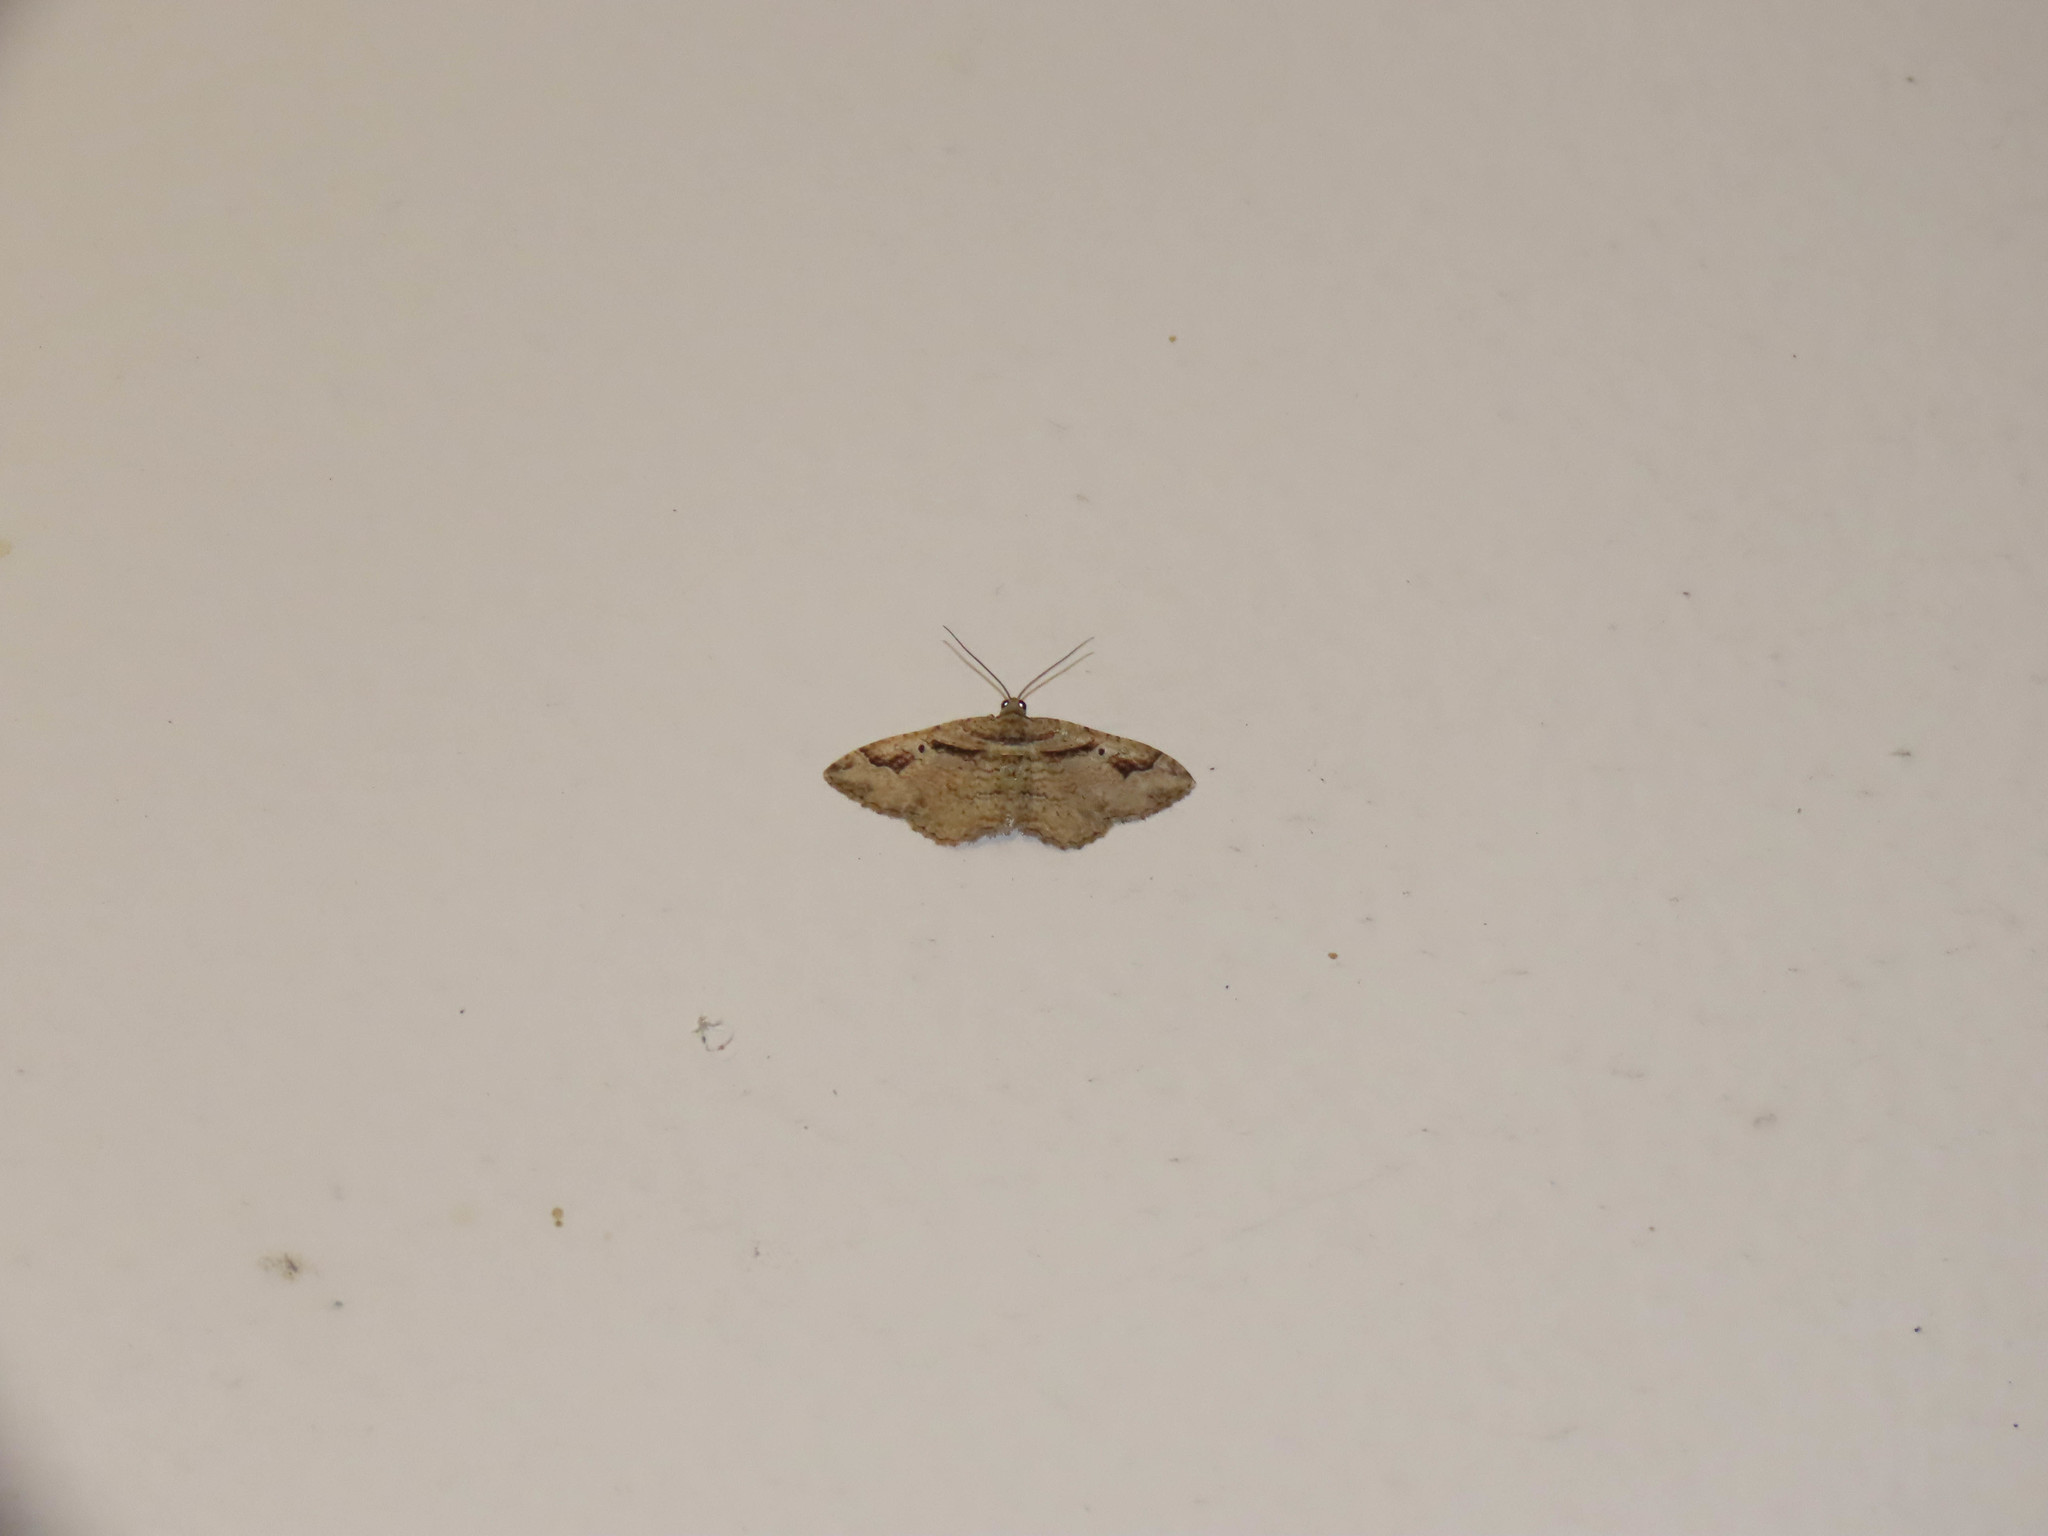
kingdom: Animalia
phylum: Arthropoda
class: Insecta
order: Lepidoptera
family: Geometridae
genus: Costaconvexa
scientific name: Costaconvexa centrostrigaria
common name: Bent-line carpet
